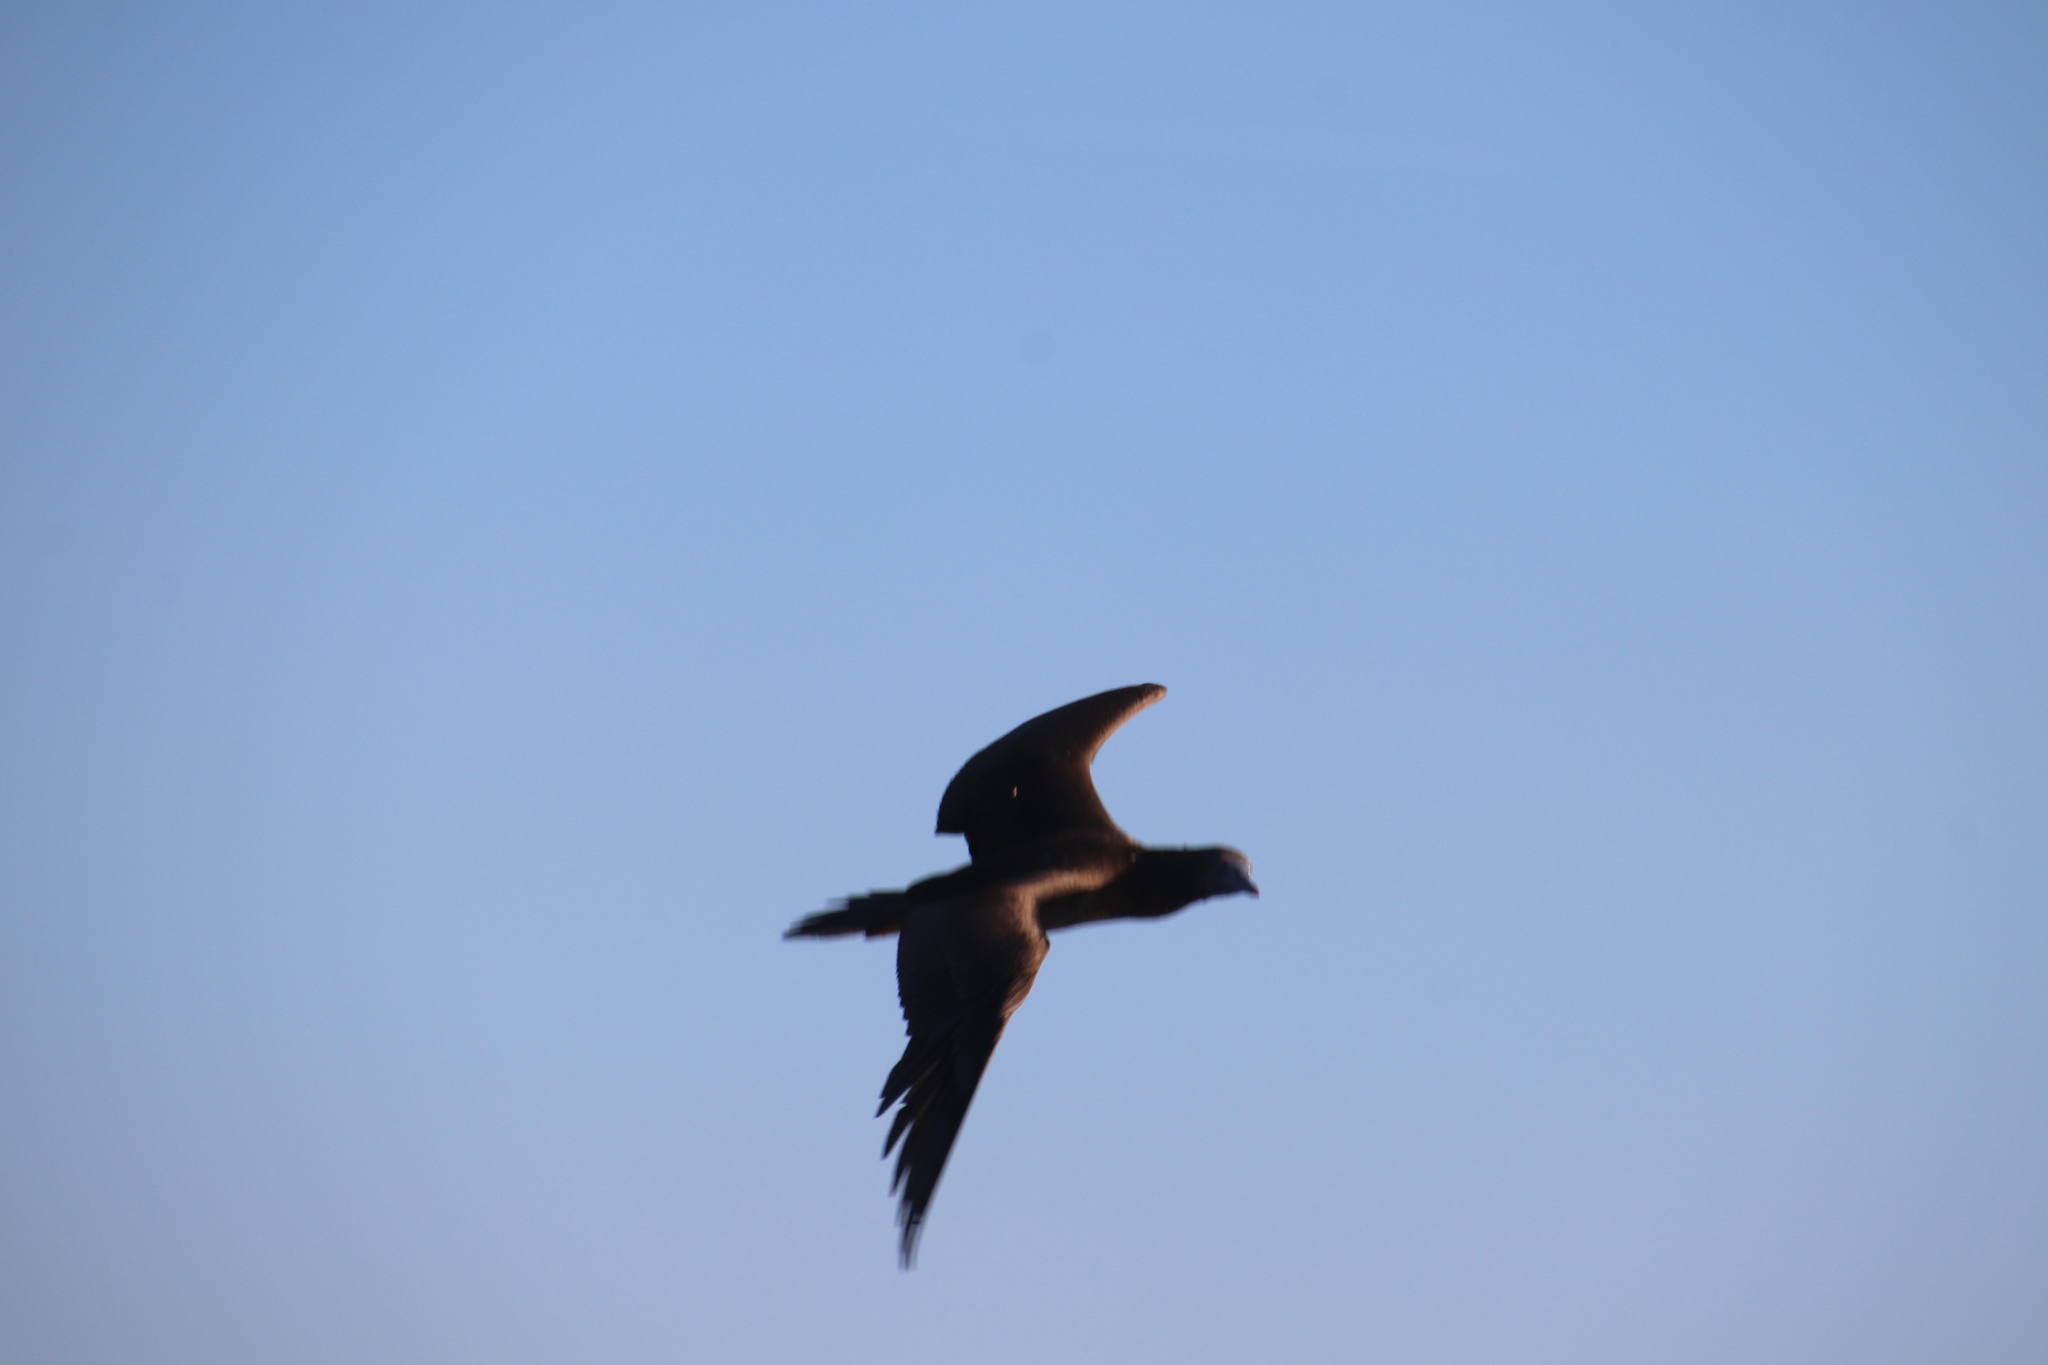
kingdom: Animalia
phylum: Chordata
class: Aves
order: Suliformes
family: Sulidae
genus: Sula
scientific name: Sula leucogaster
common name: Brown booby
